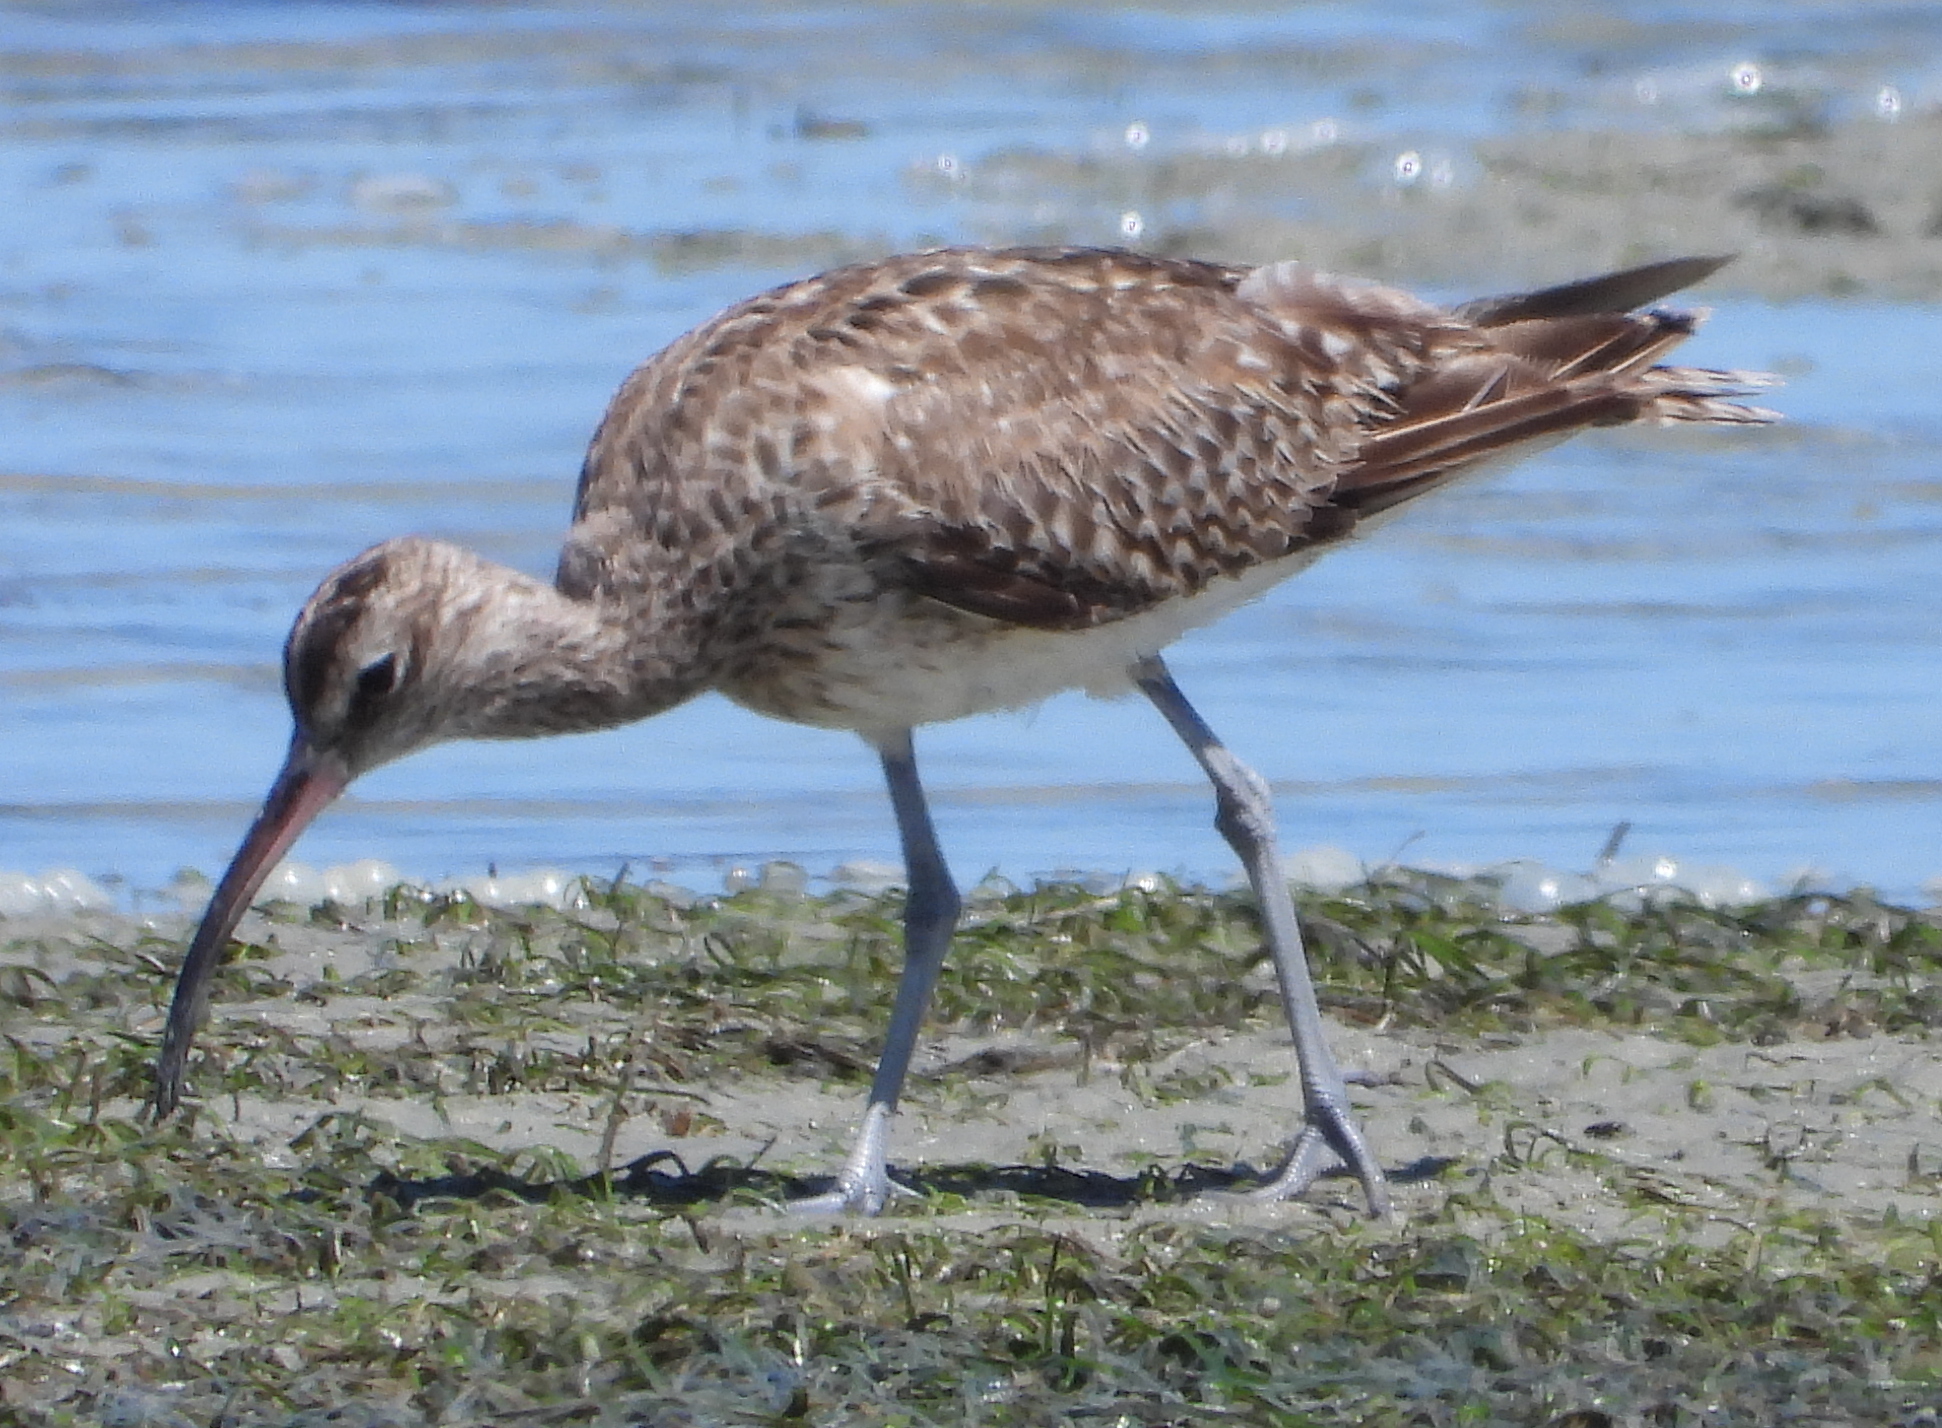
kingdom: Animalia
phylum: Chordata
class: Aves
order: Charadriiformes
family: Scolopacidae
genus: Numenius
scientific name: Numenius phaeopus
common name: Whimbrel
